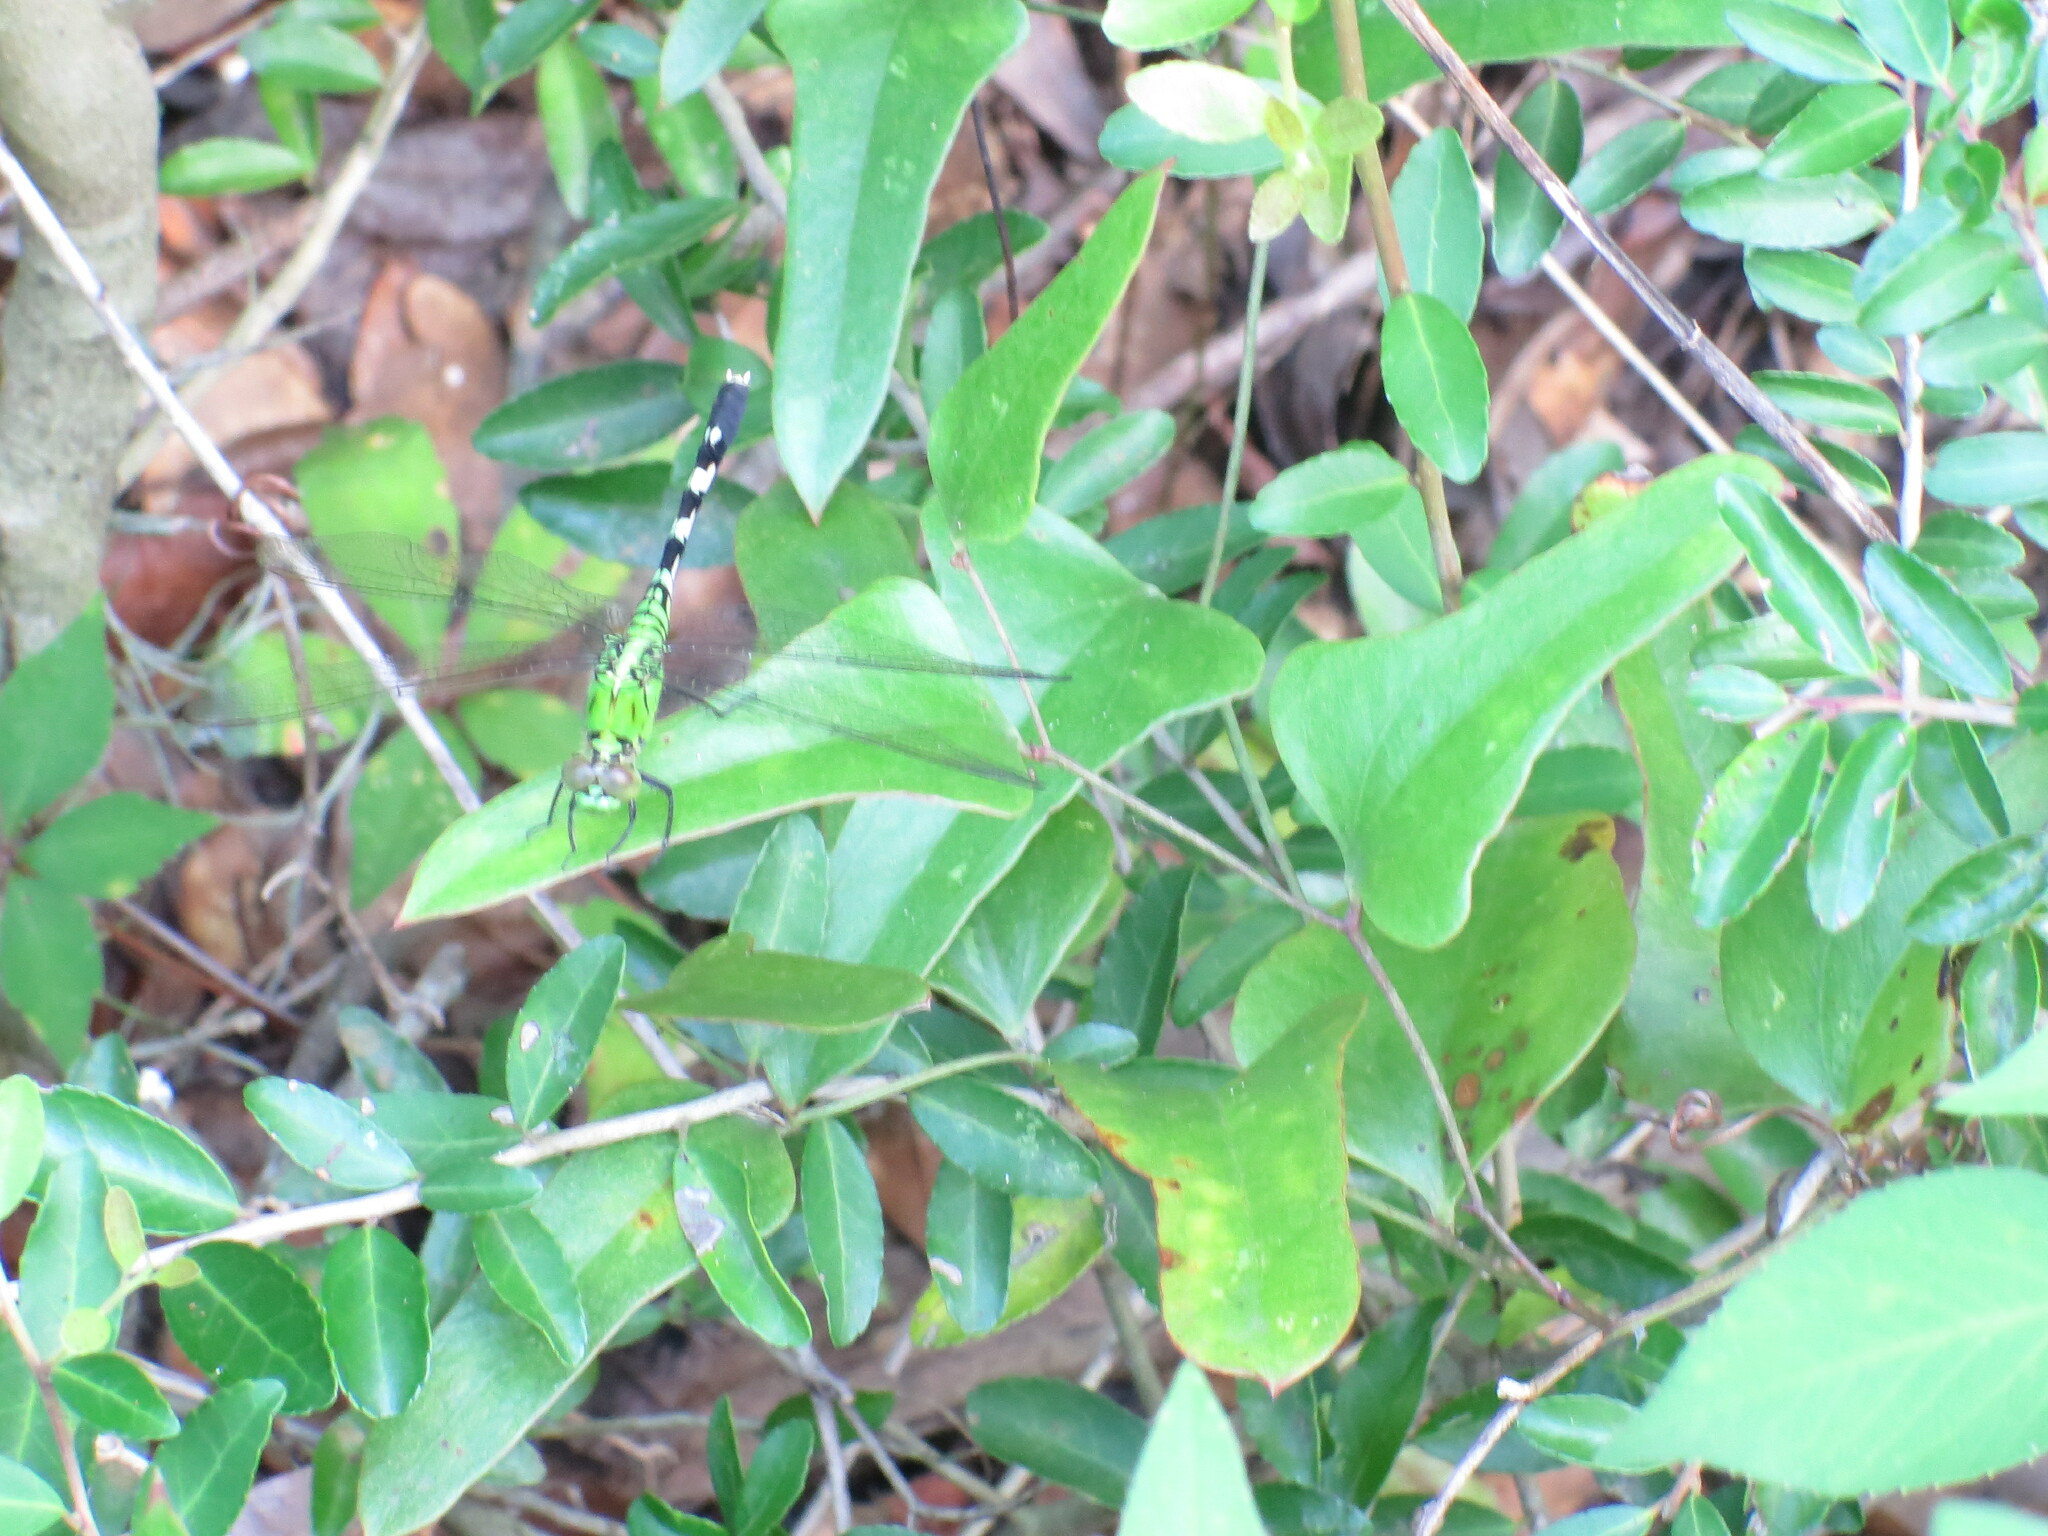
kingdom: Animalia
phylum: Arthropoda
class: Insecta
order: Odonata
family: Libellulidae
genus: Erythemis
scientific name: Erythemis simplicicollis
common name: Eastern pondhawk
